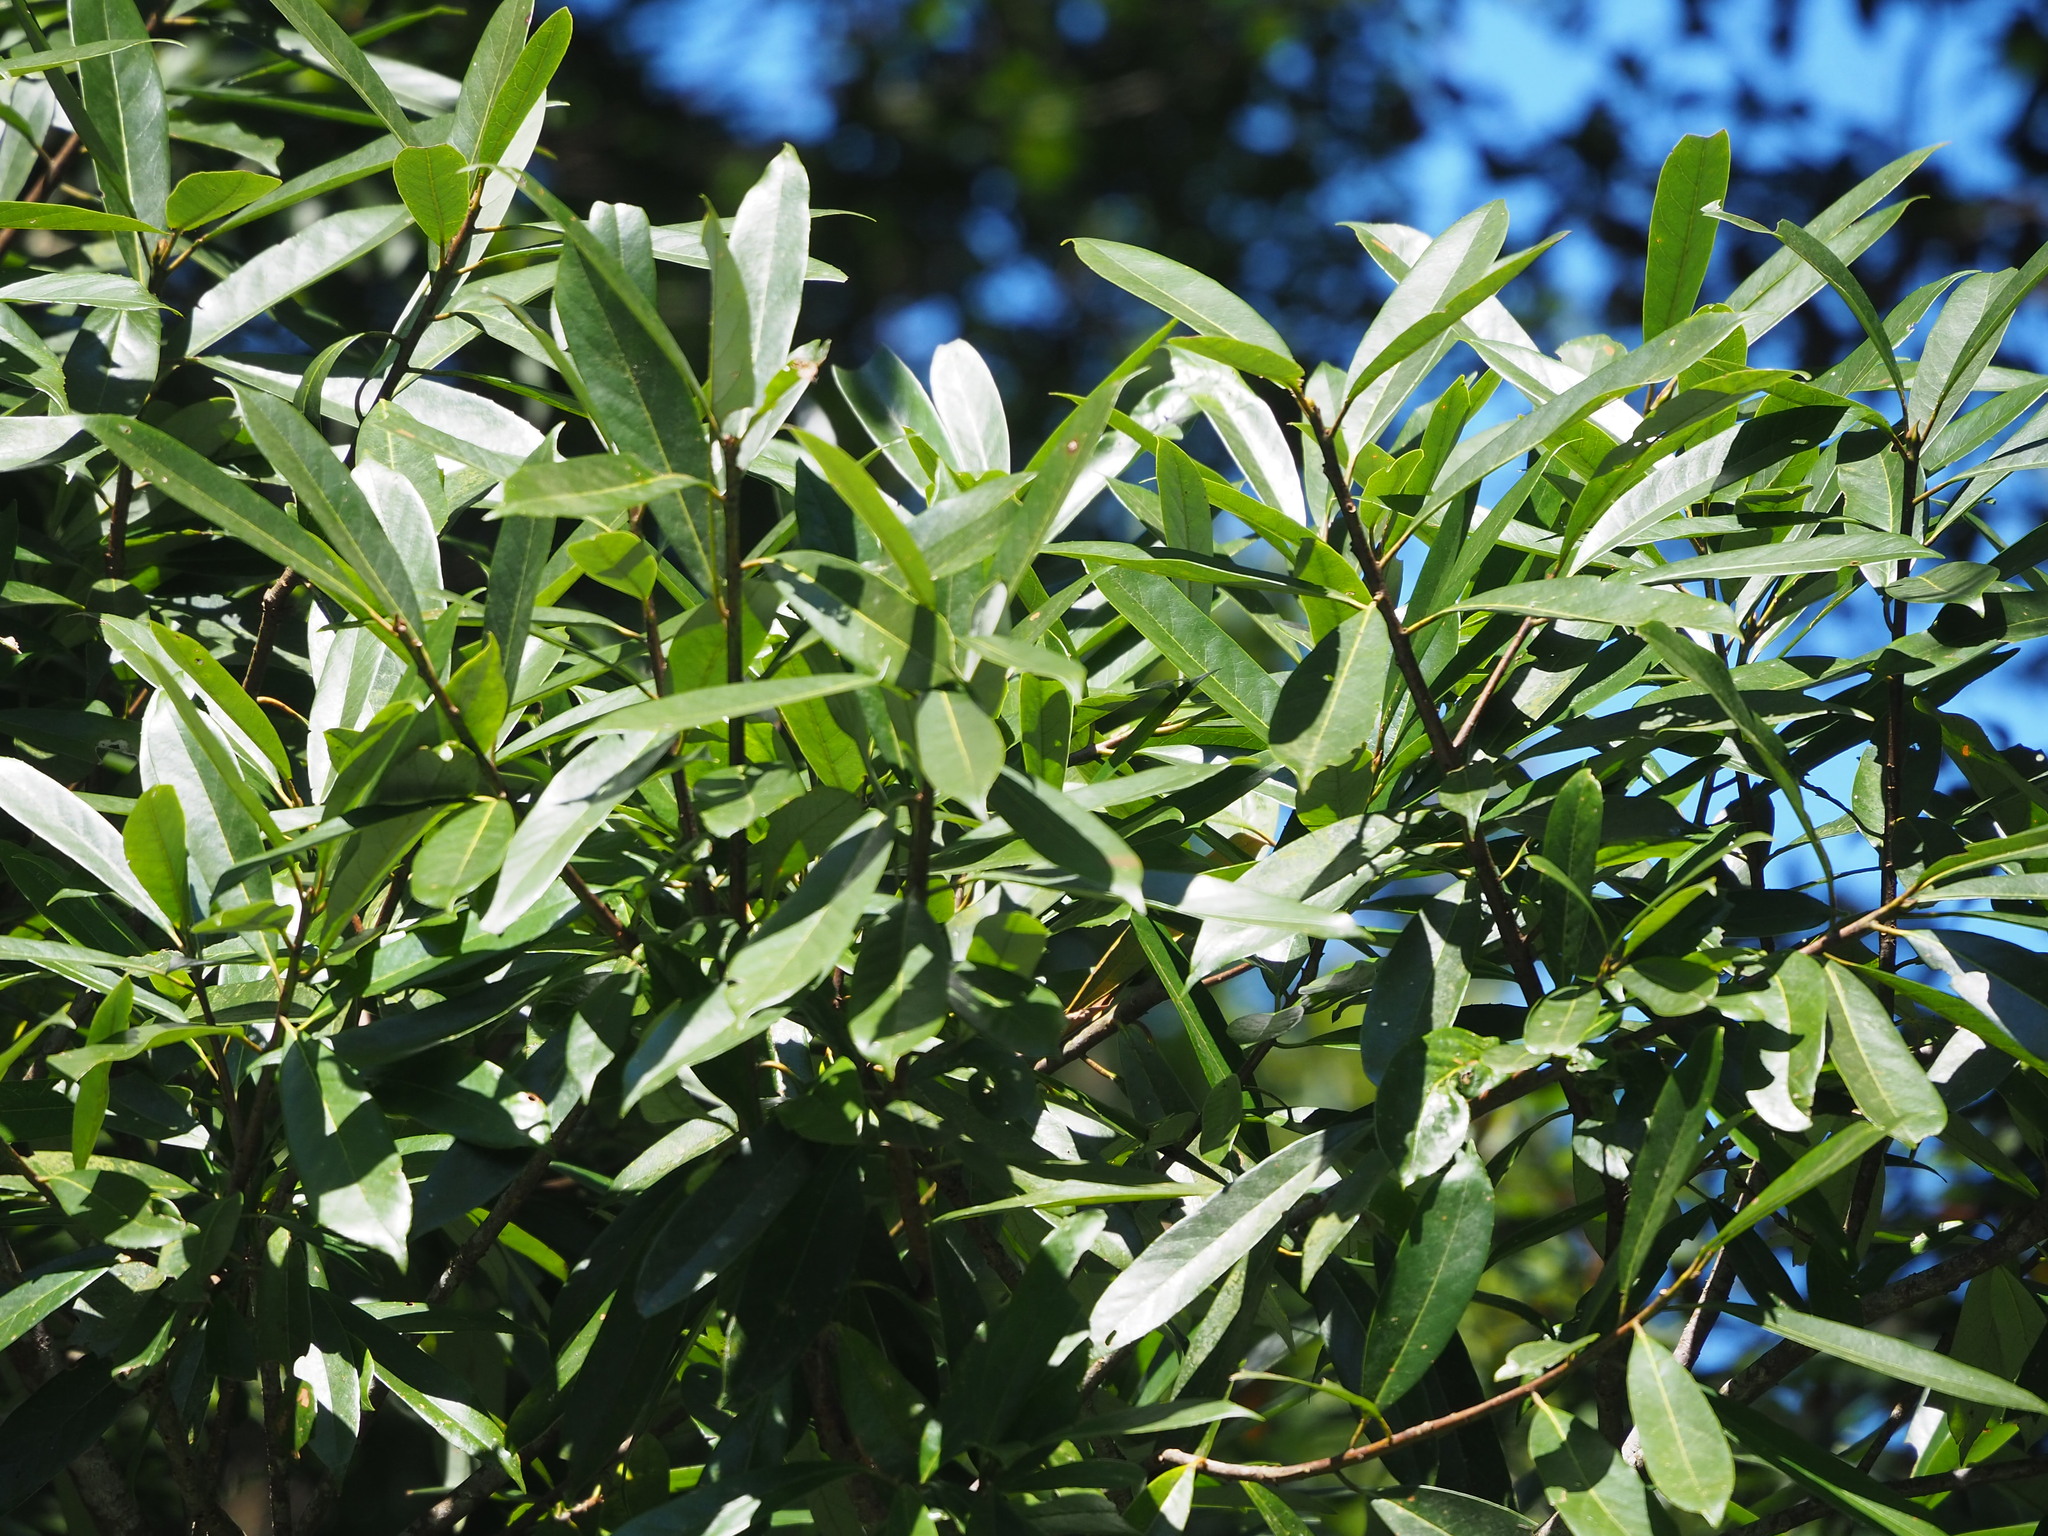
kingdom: Plantae
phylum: Tracheophyta
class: Magnoliopsida
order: Ericales
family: Theaceae
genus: Polyspora
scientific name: Polyspora axillaris
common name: Fried egg tree
